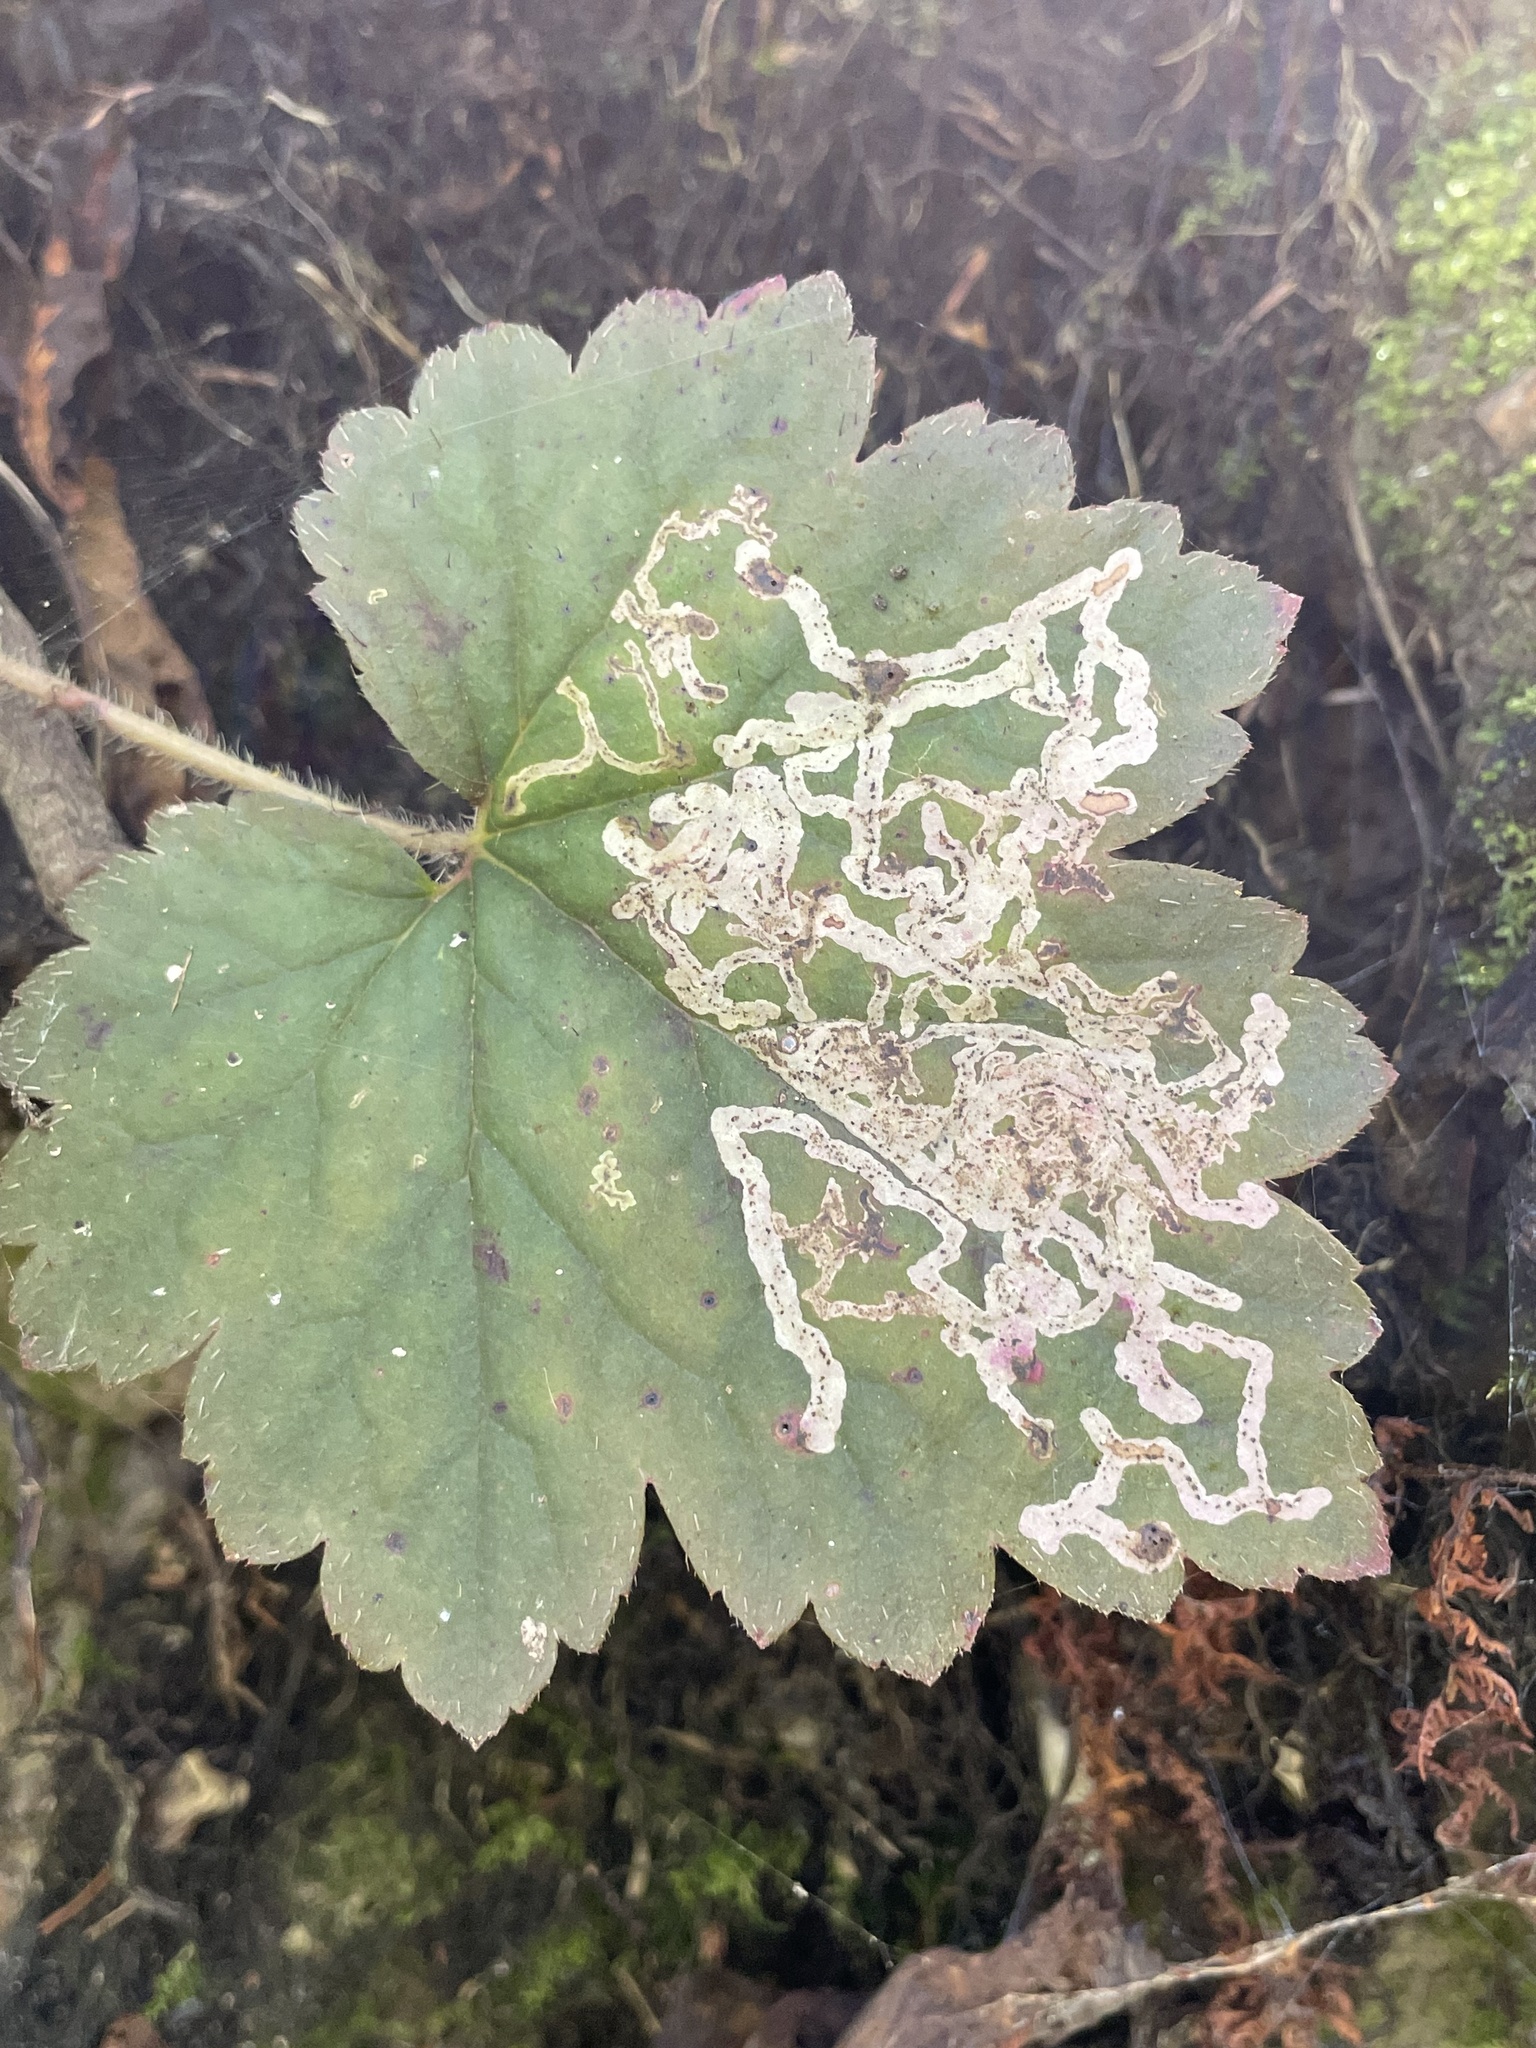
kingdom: Animalia
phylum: Arthropoda
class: Insecta
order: Diptera
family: Agromyzidae
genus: Phytomyza
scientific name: Phytomyza tiarellae
